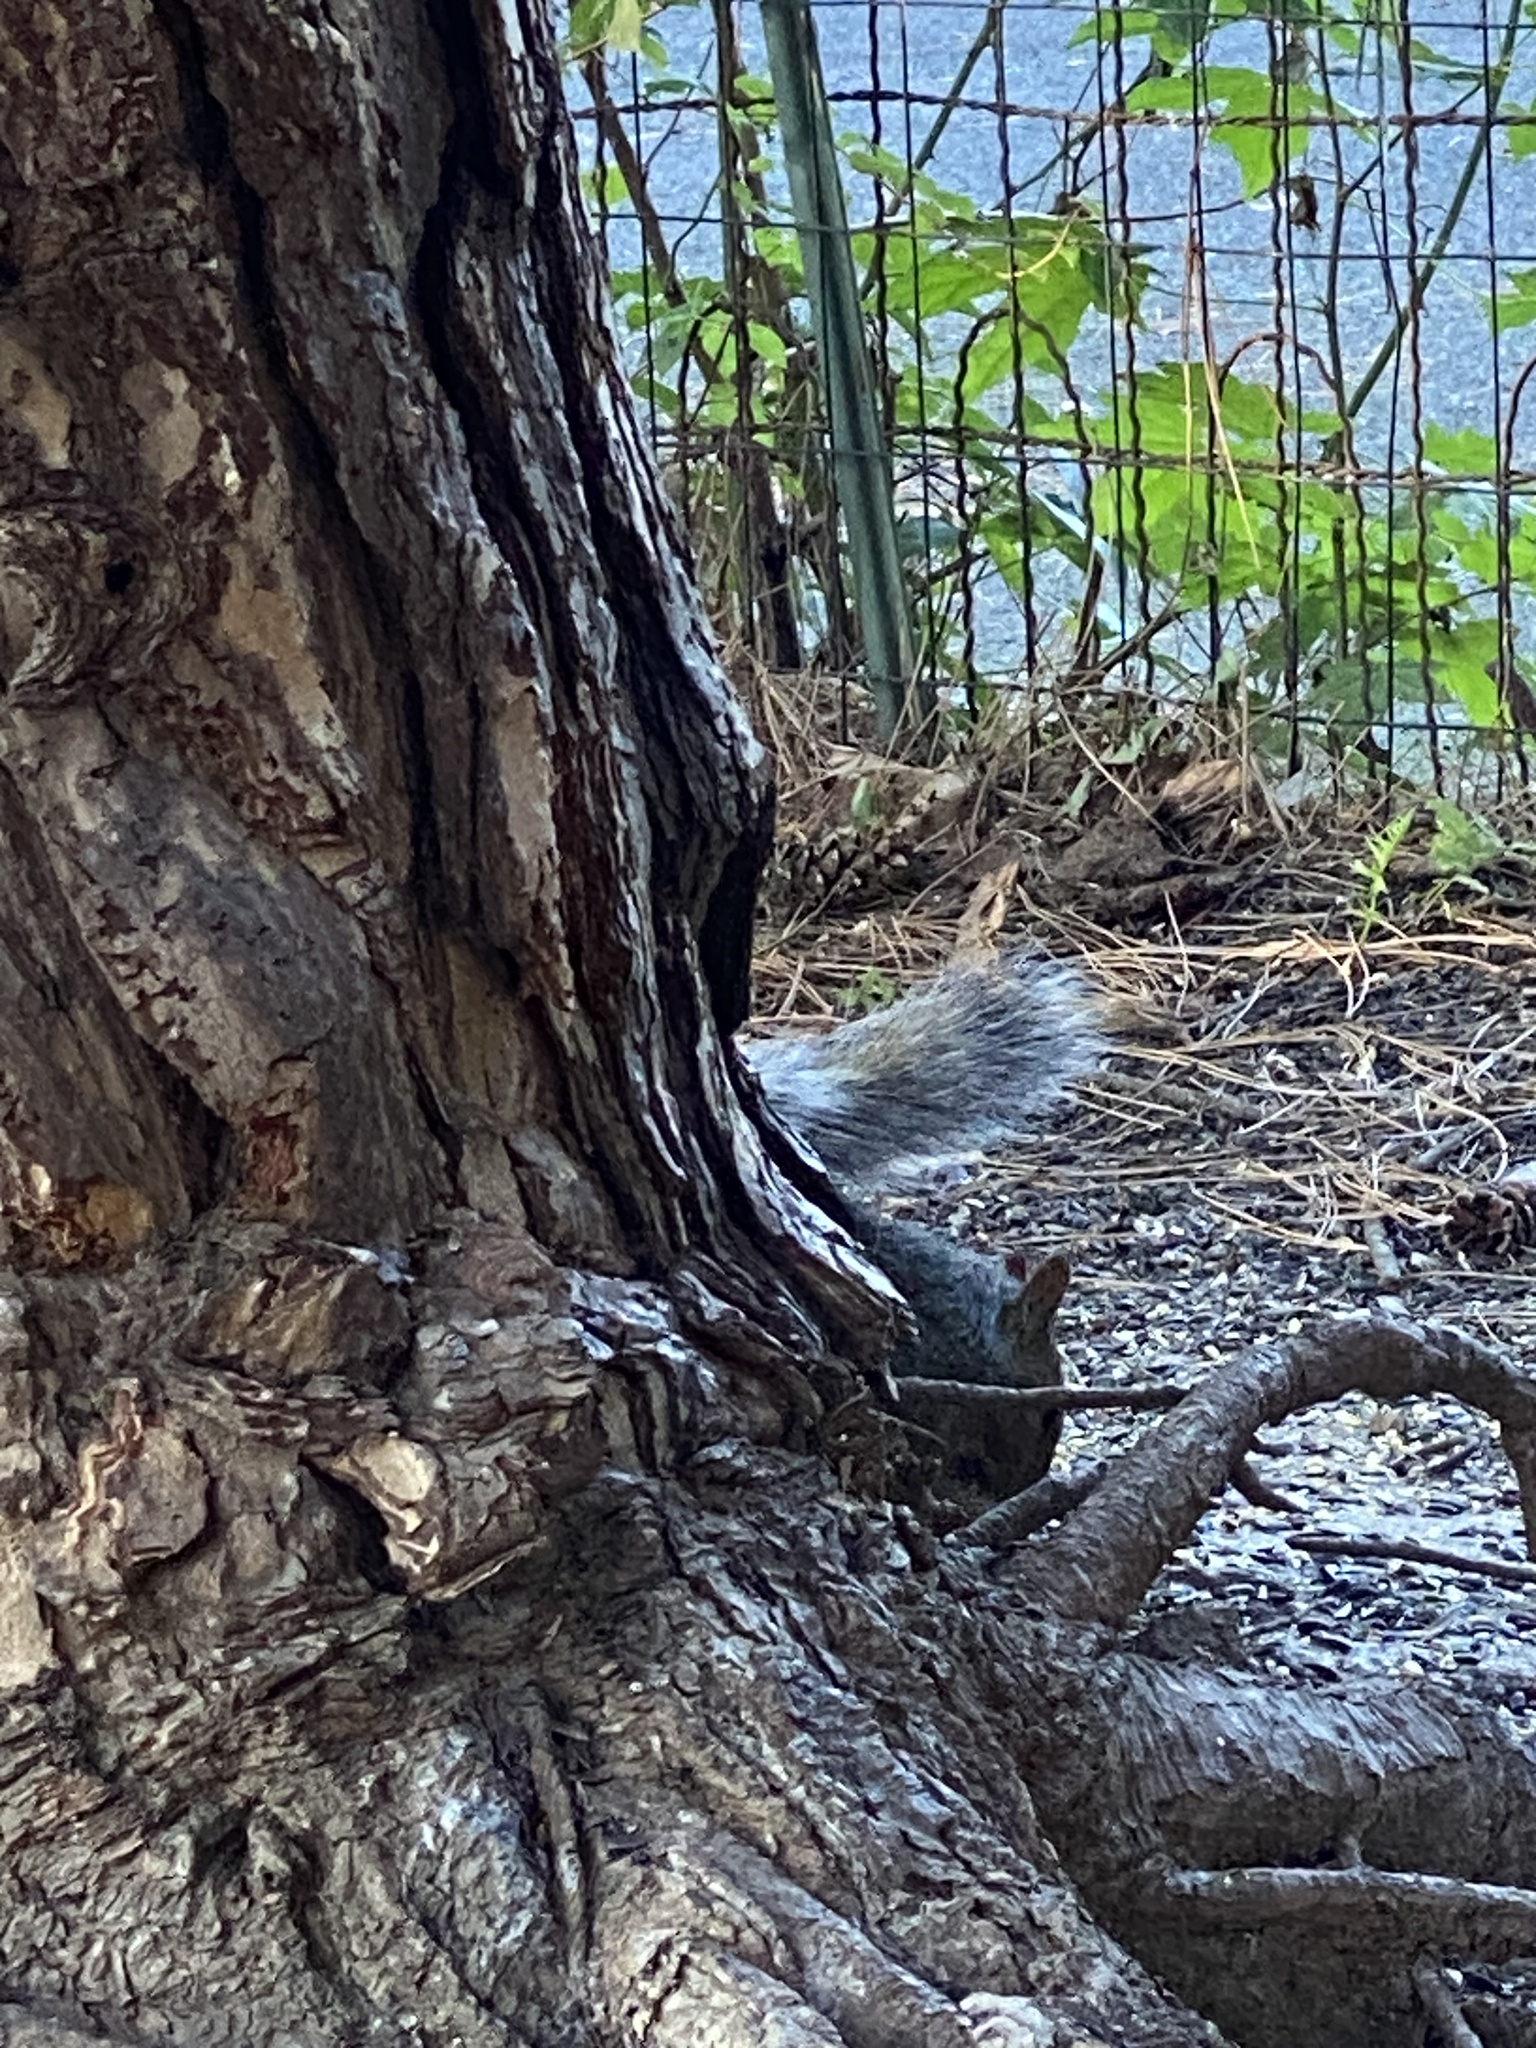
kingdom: Animalia
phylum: Chordata
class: Mammalia
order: Rodentia
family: Sciuridae
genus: Sciurus
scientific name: Sciurus carolinensis
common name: Eastern gray squirrel
